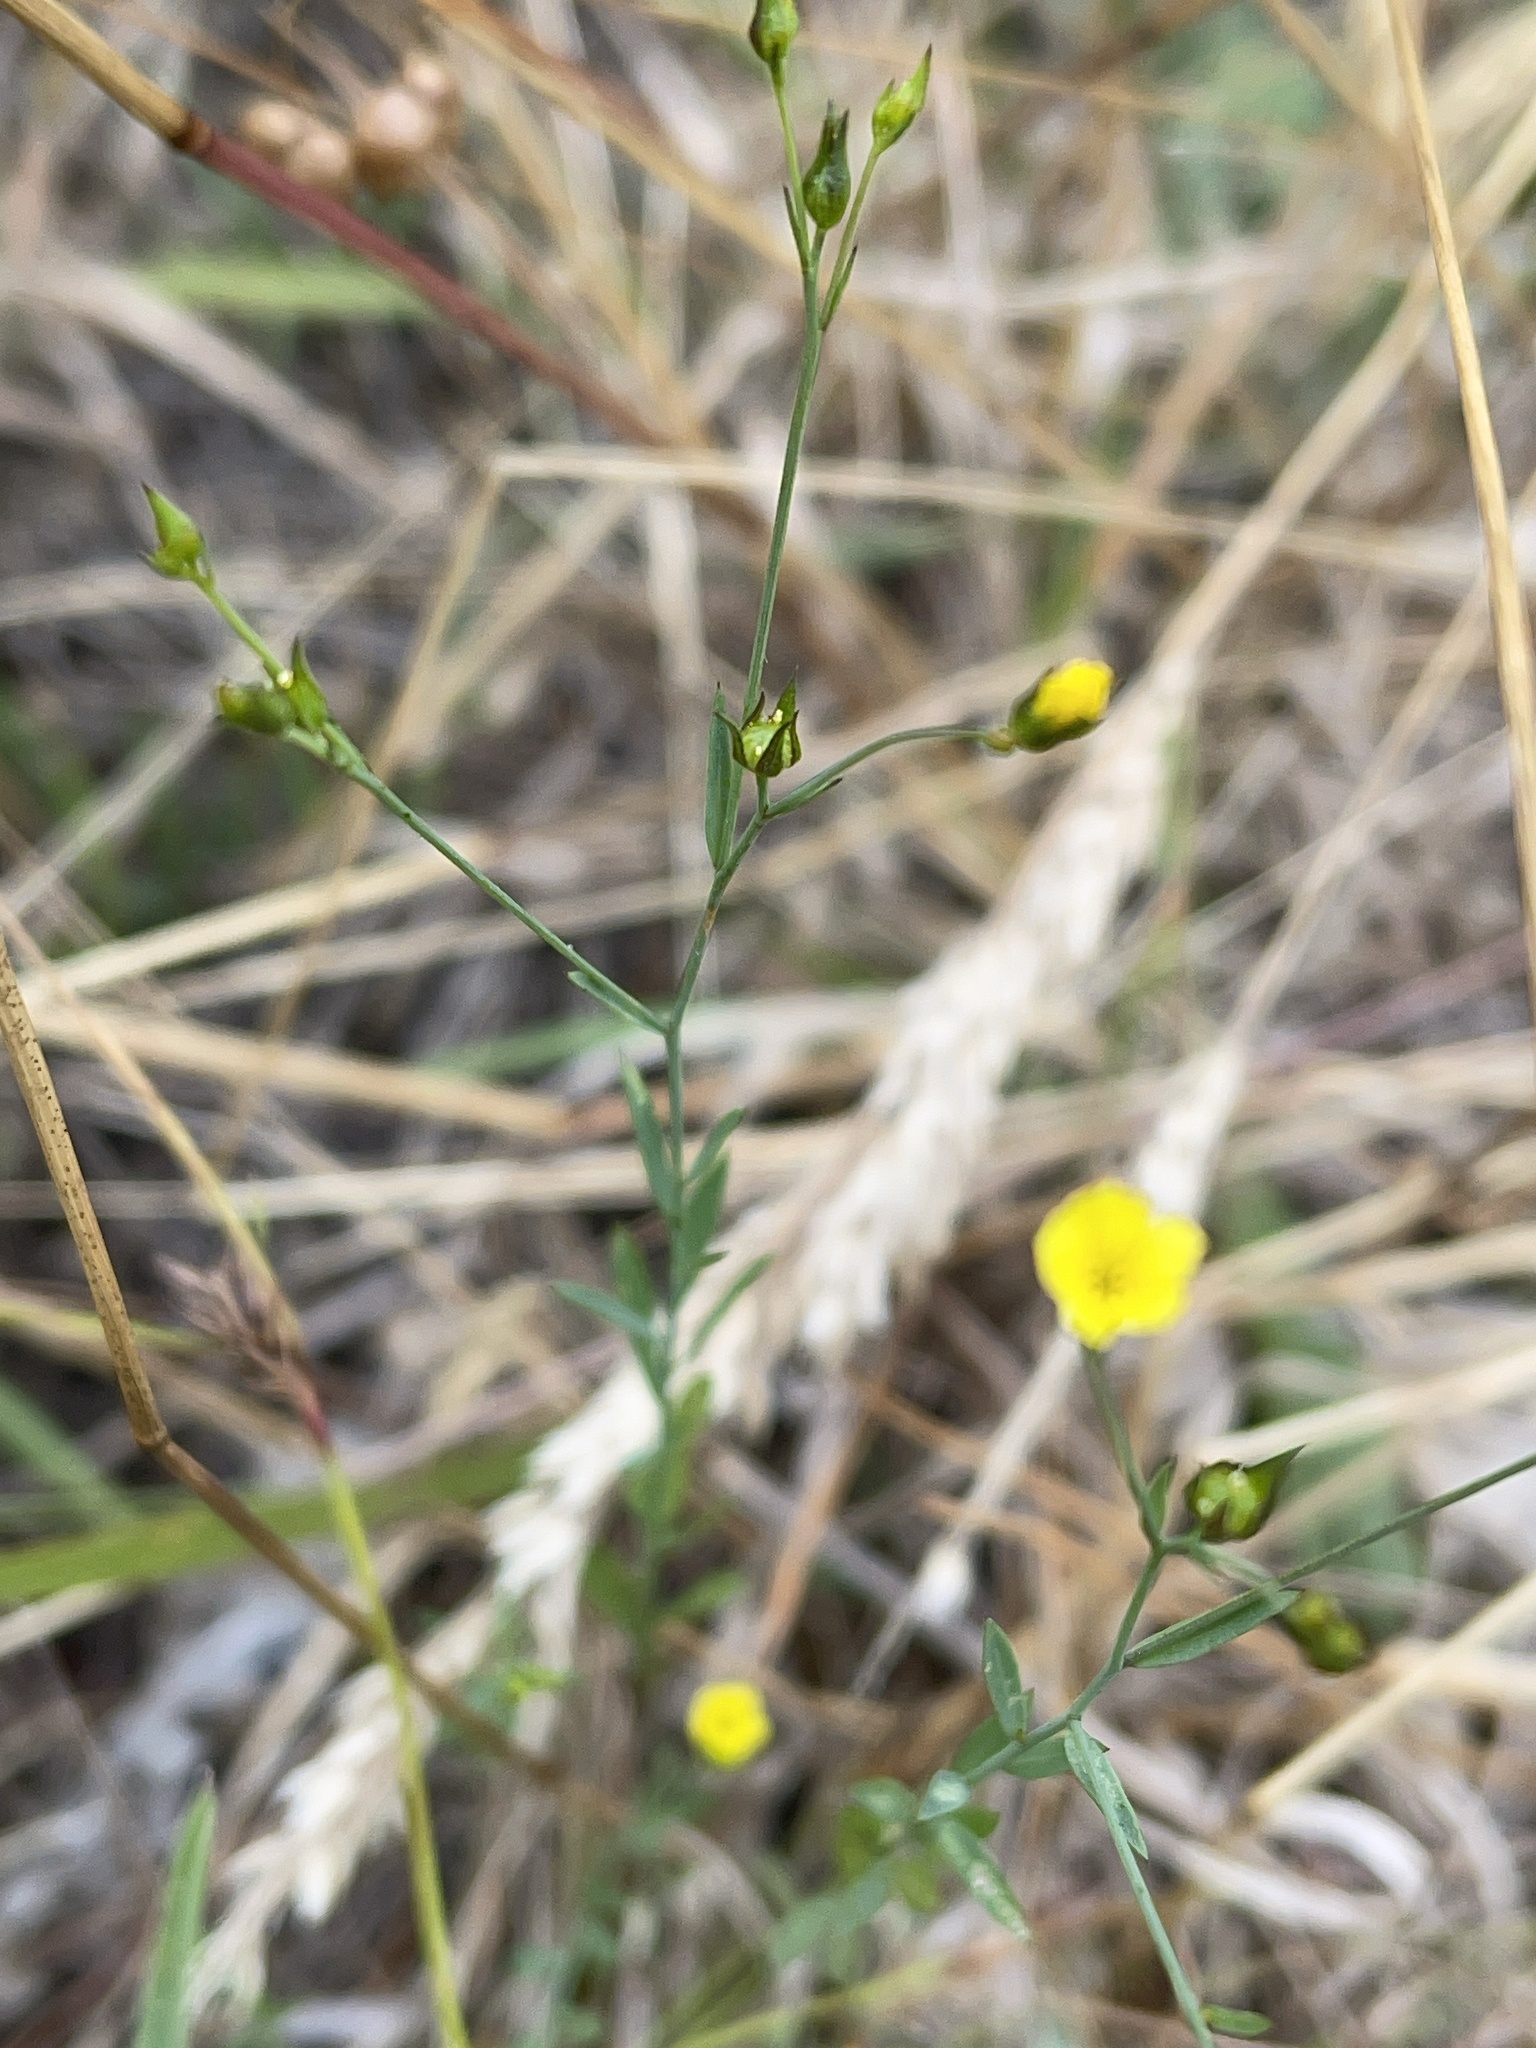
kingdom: Plantae
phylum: Tracheophyta
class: Magnoliopsida
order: Malpighiales
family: Linaceae
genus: Linum
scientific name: Linum trigynum
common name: French flax
